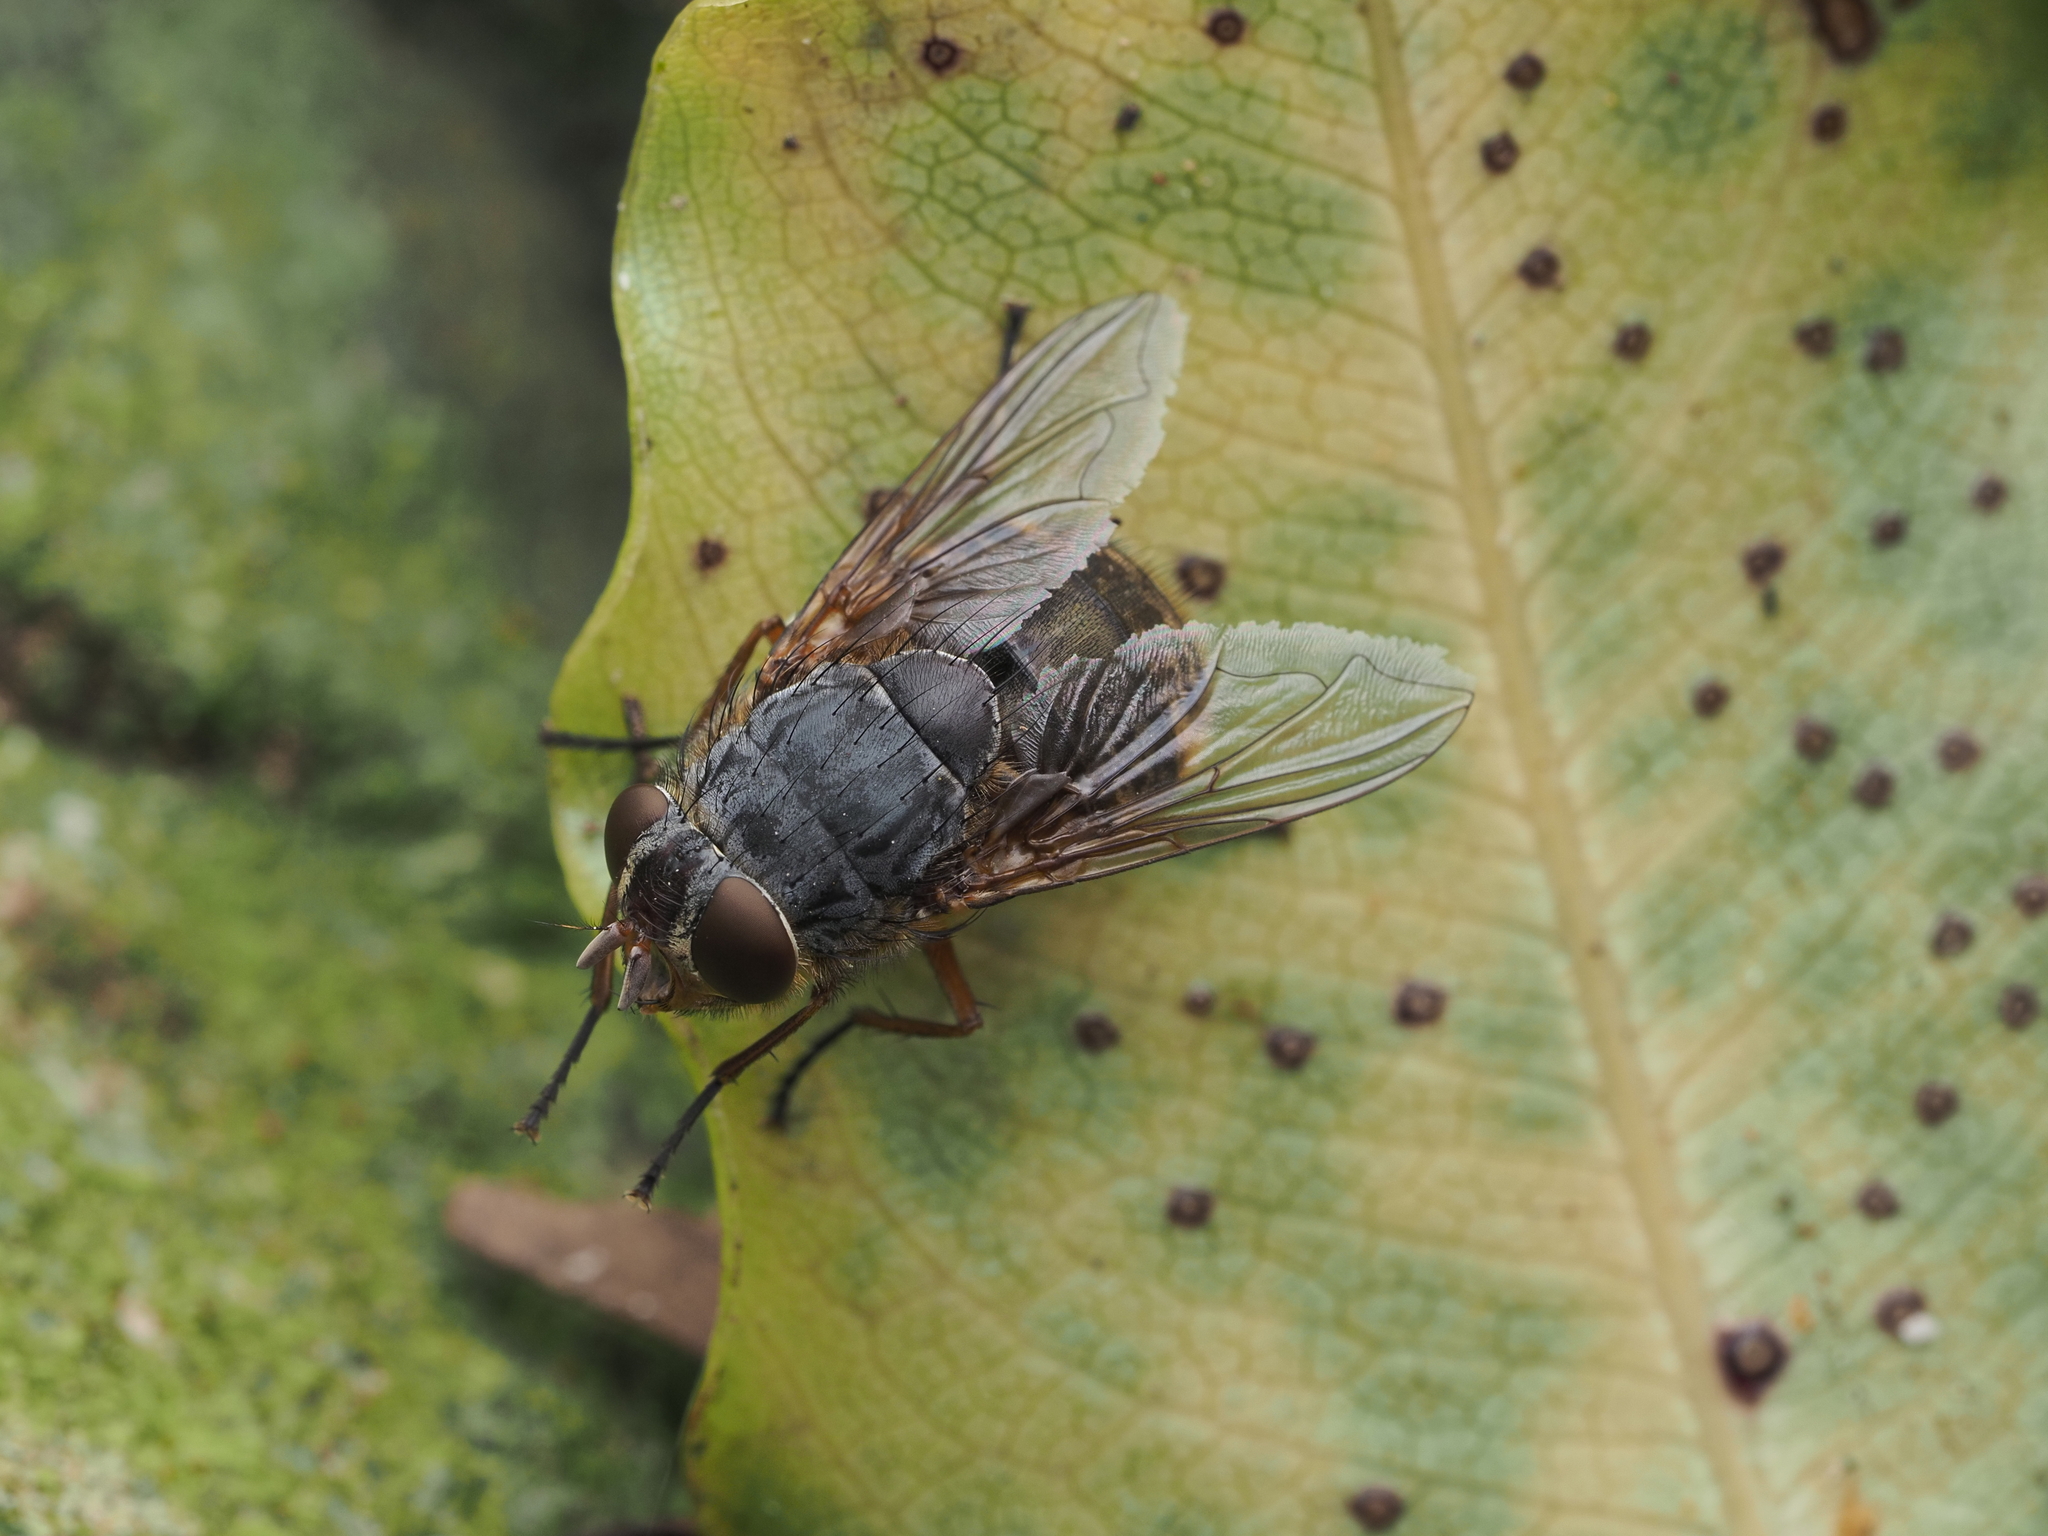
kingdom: Animalia
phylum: Arthropoda
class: Insecta
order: Diptera
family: Calliphoridae
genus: Calliphora
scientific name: Calliphora stygia
